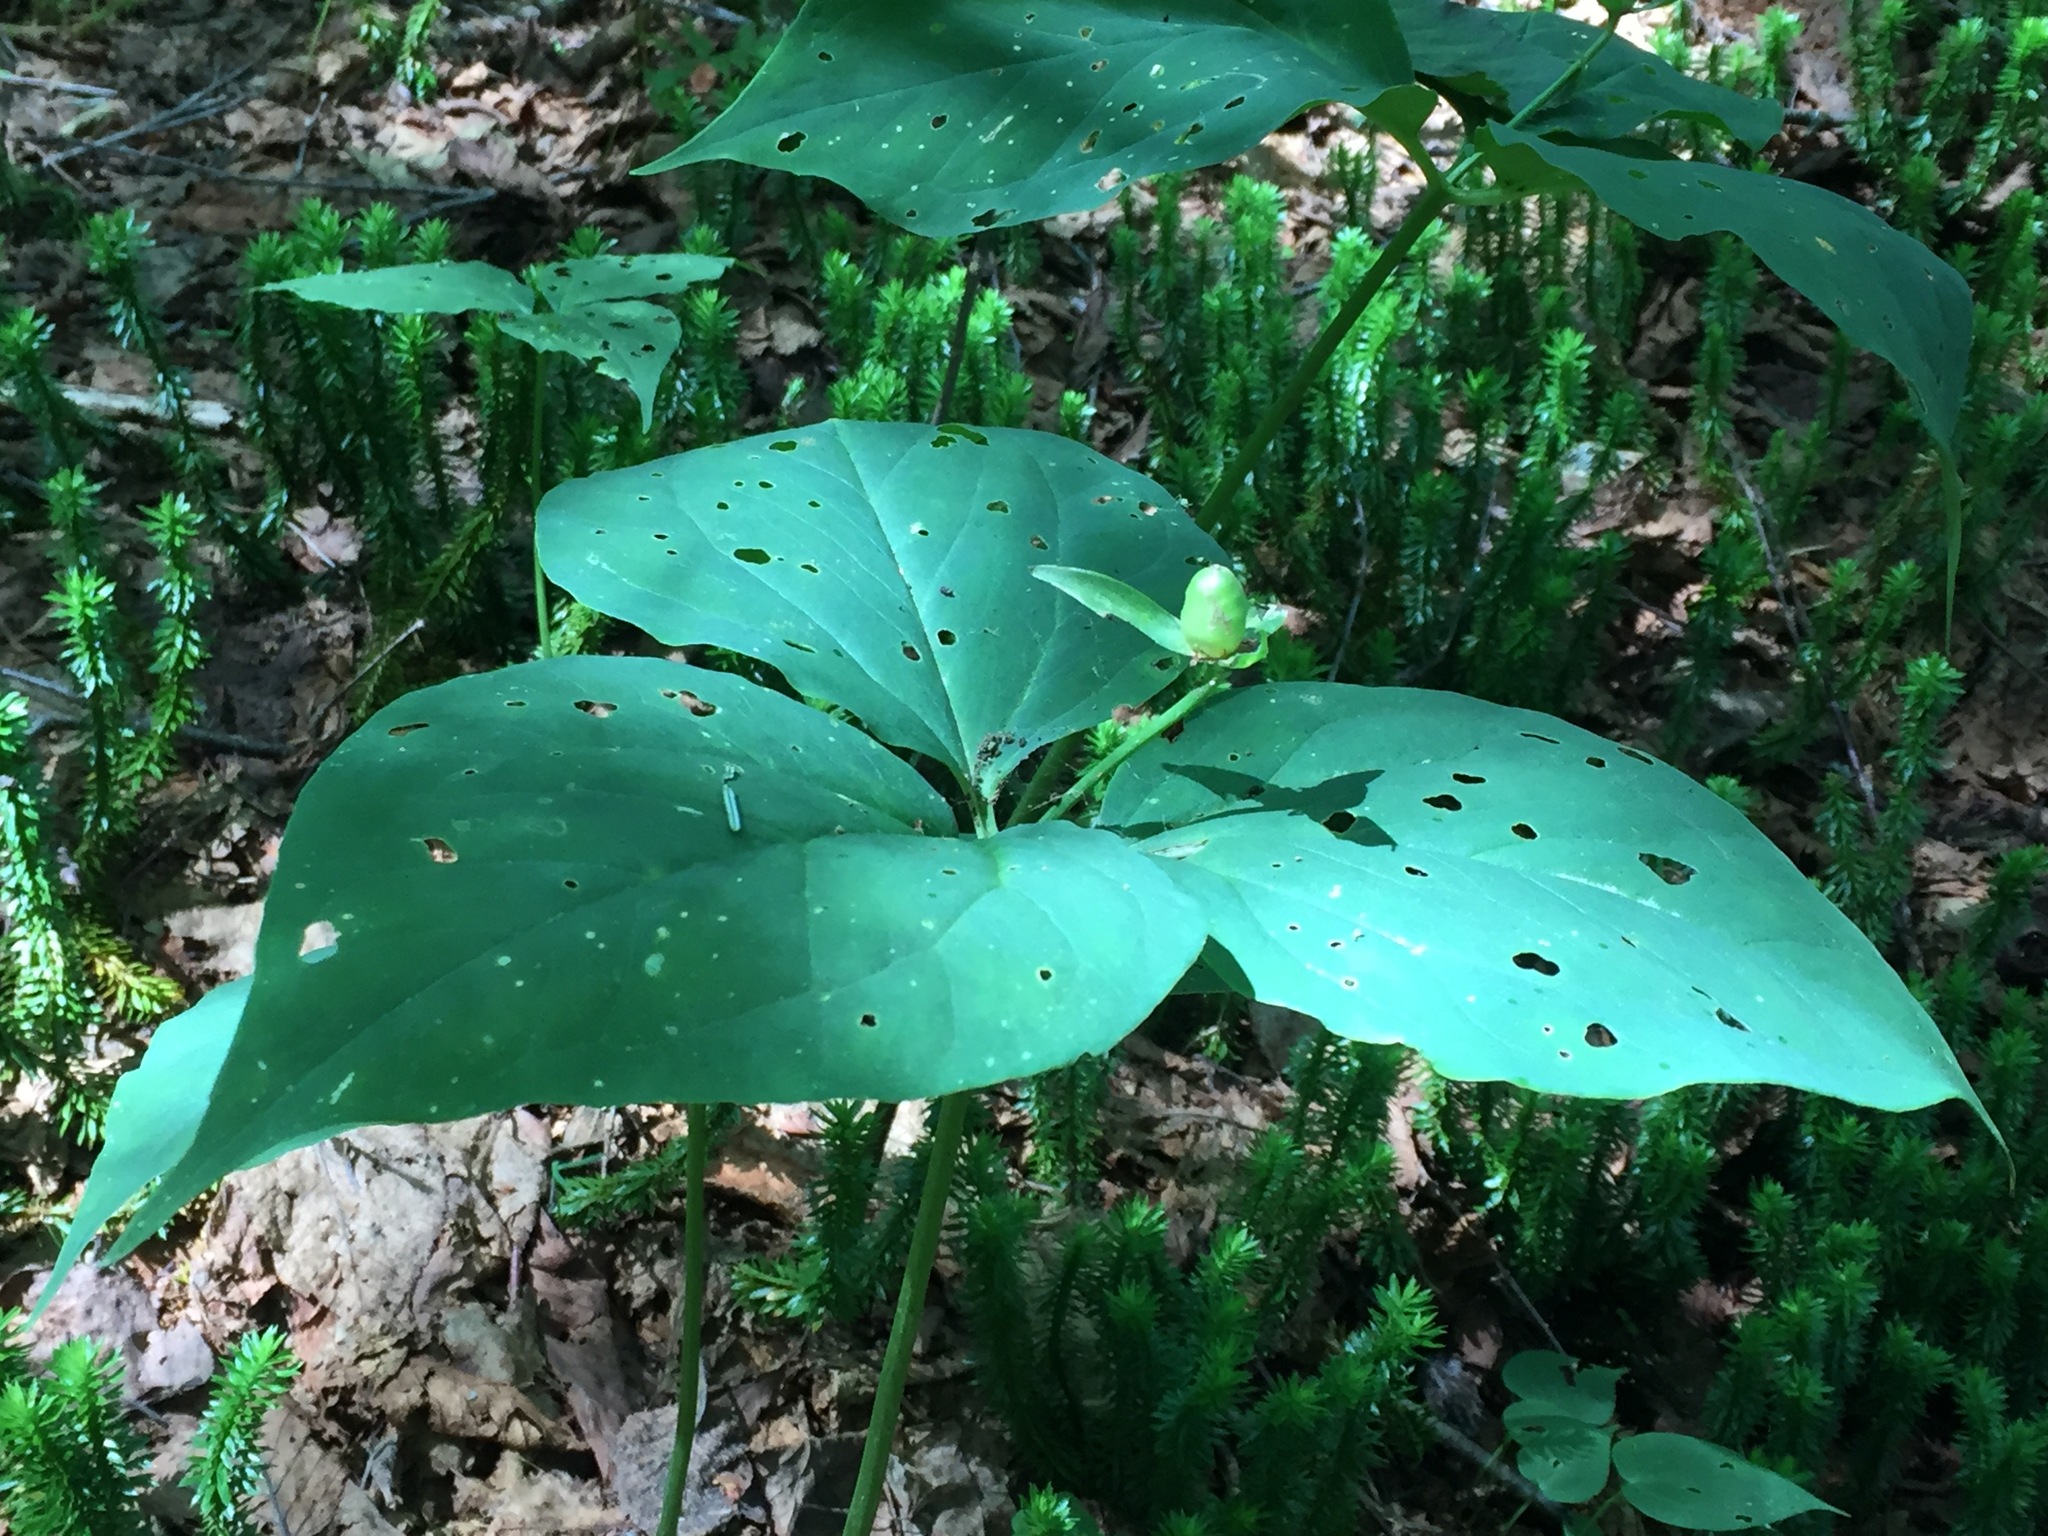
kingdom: Plantae
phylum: Tracheophyta
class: Liliopsida
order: Liliales
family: Melanthiaceae
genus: Trillium
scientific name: Trillium undulatum
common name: Paint trillium
